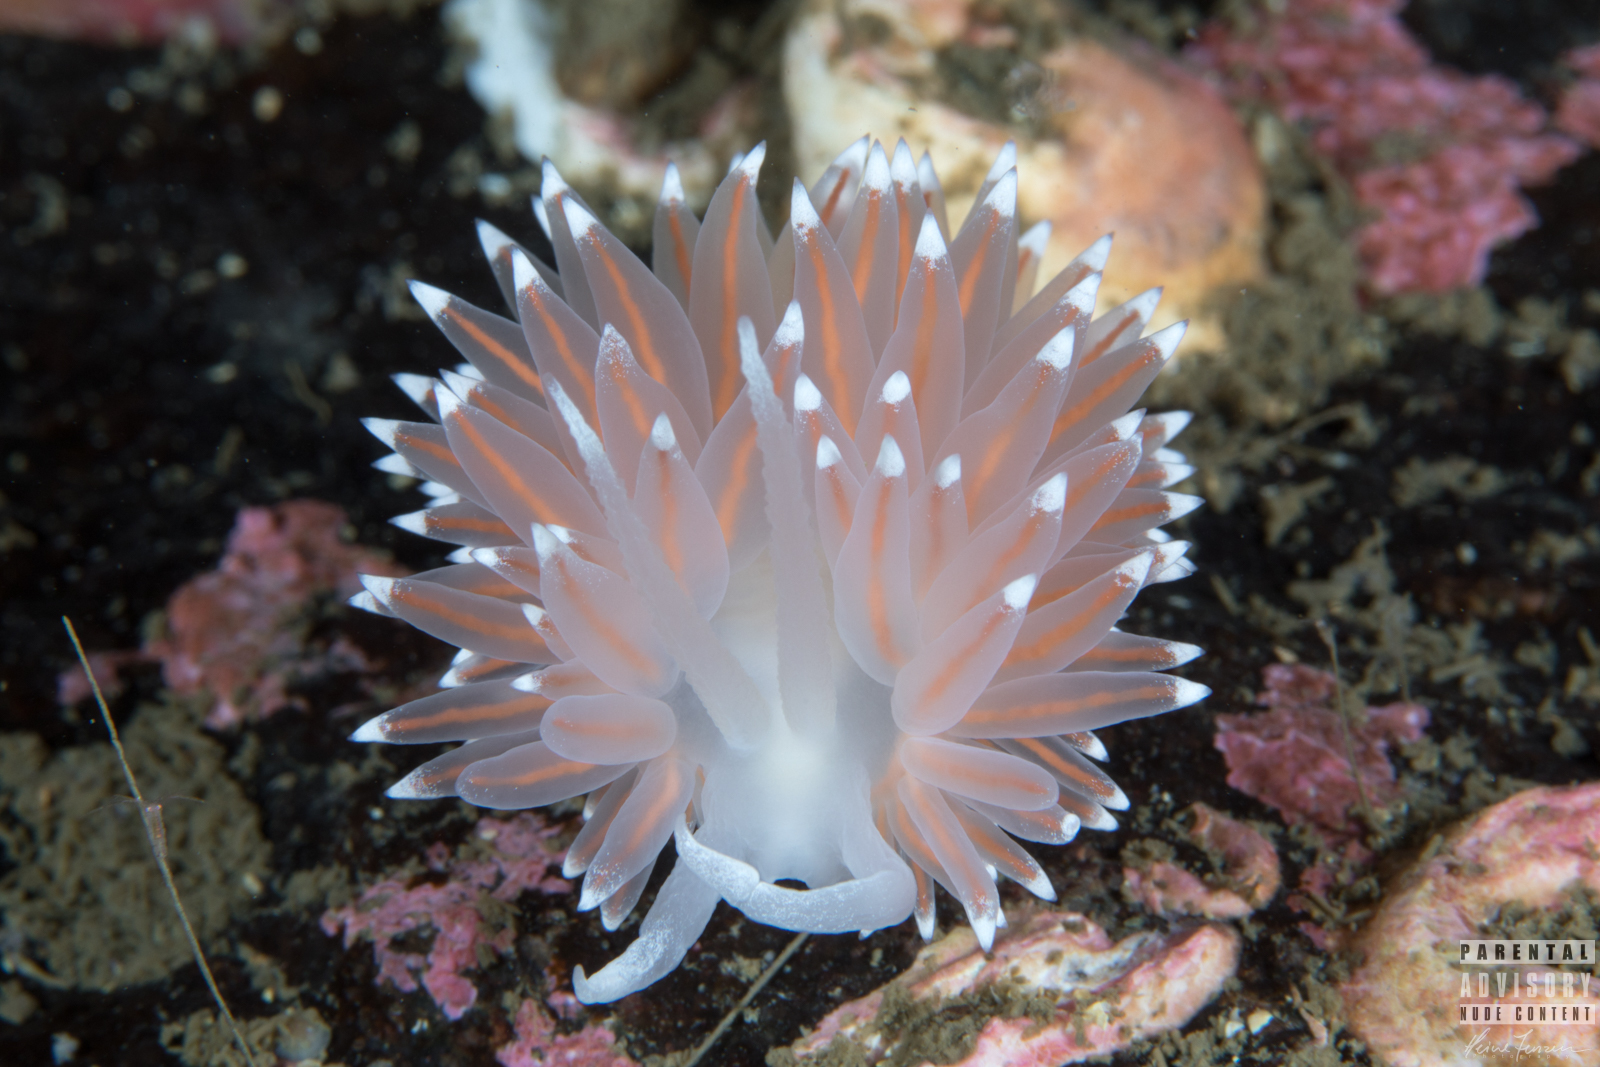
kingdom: Animalia
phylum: Mollusca
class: Gastropoda
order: Nudibranchia
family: Coryphellidae
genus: Coryphella
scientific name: Coryphella nobilis
